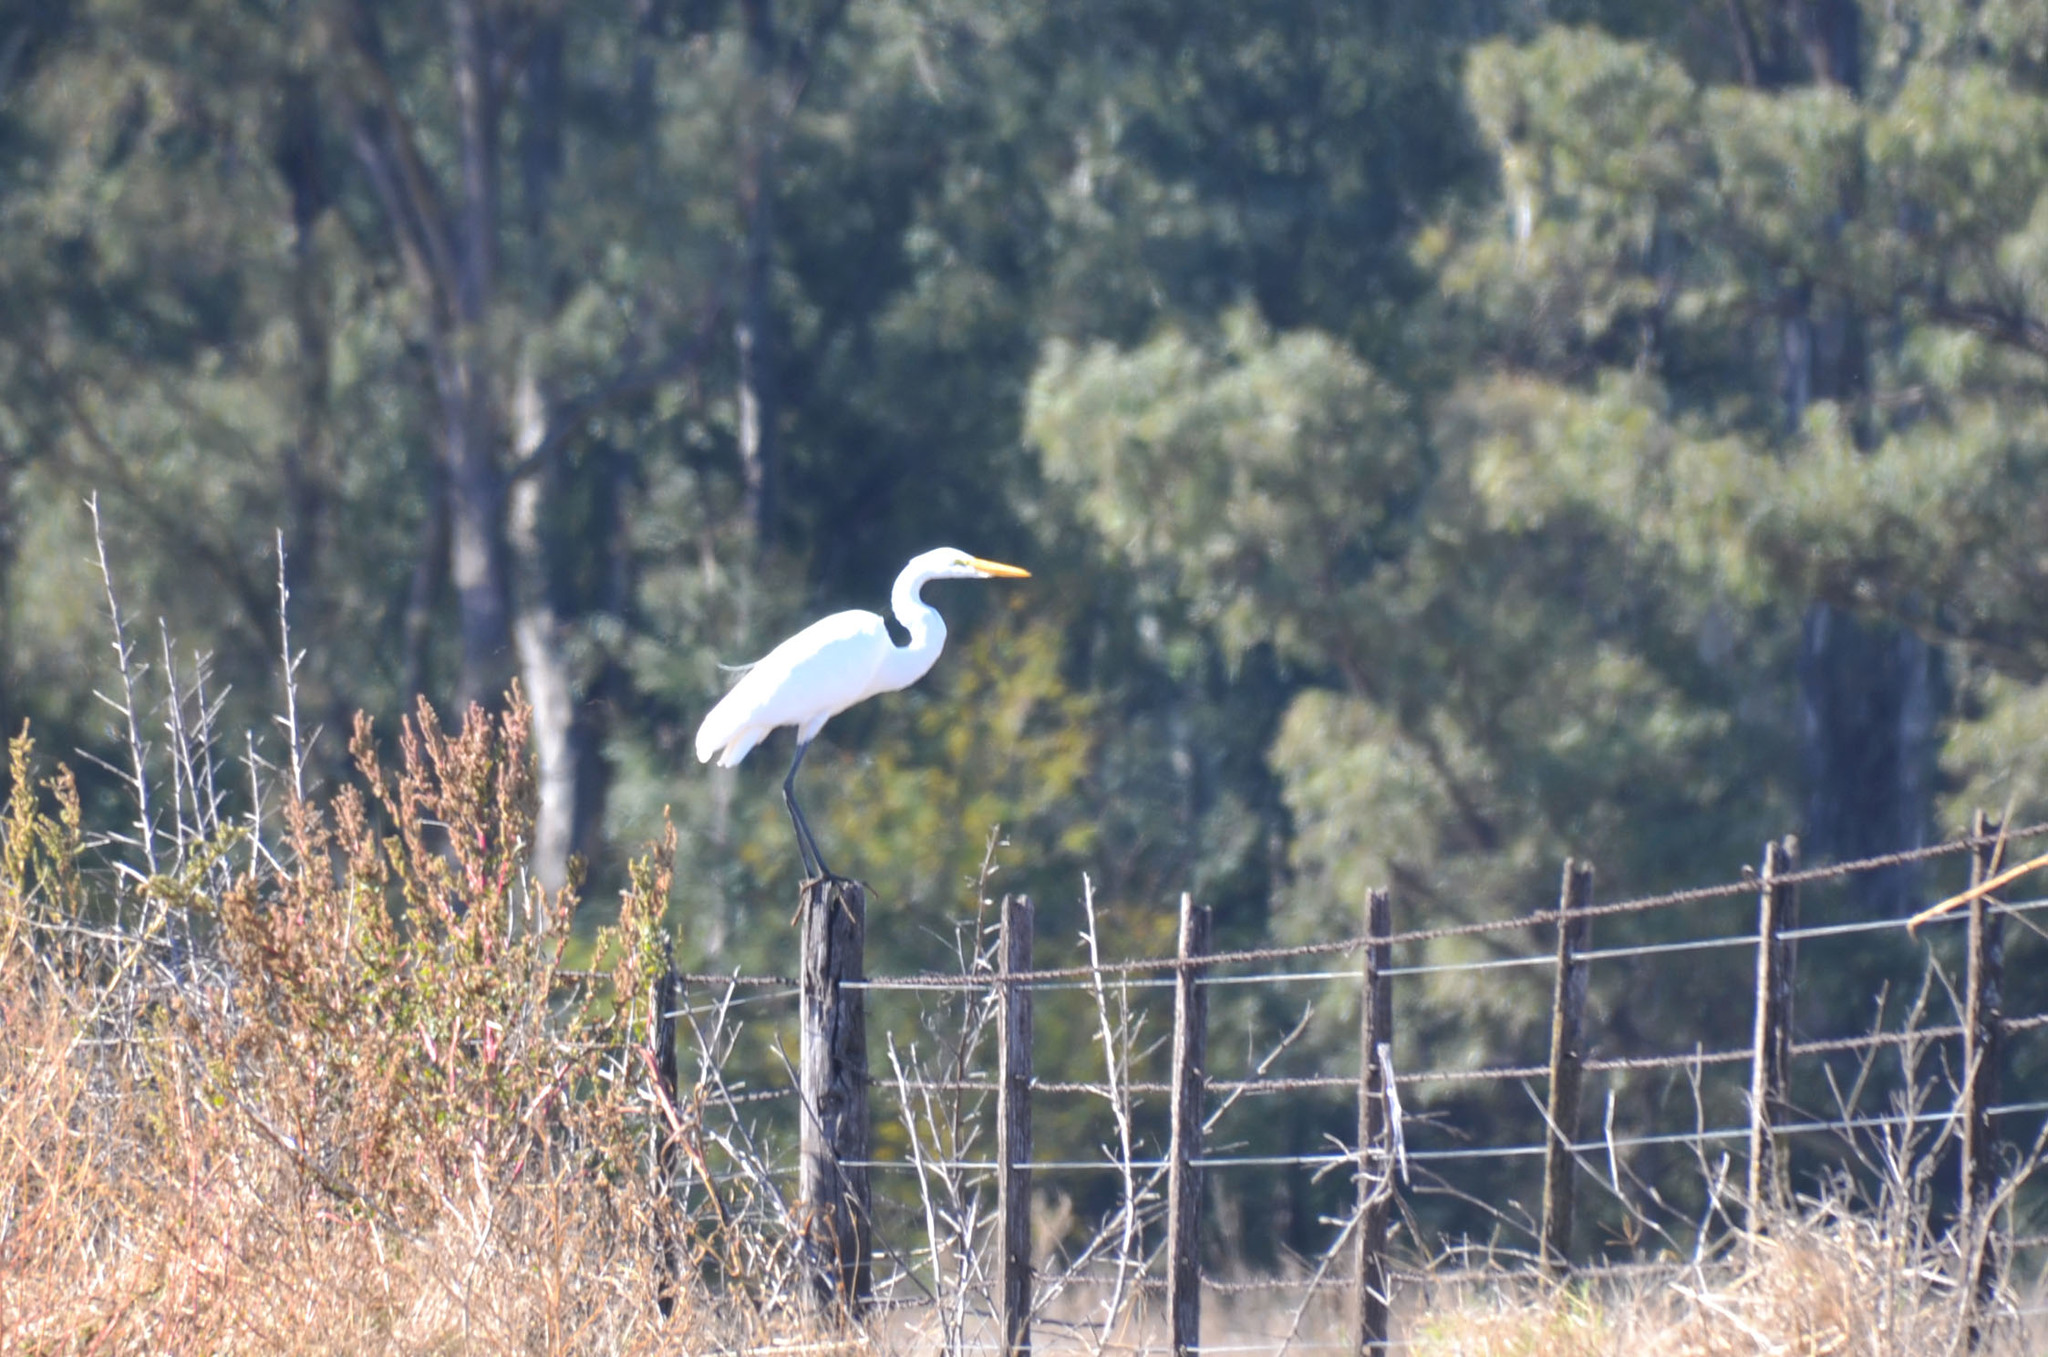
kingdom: Animalia
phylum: Chordata
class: Aves
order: Pelecaniformes
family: Ardeidae
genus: Ardea
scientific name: Ardea alba
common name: Great egret
